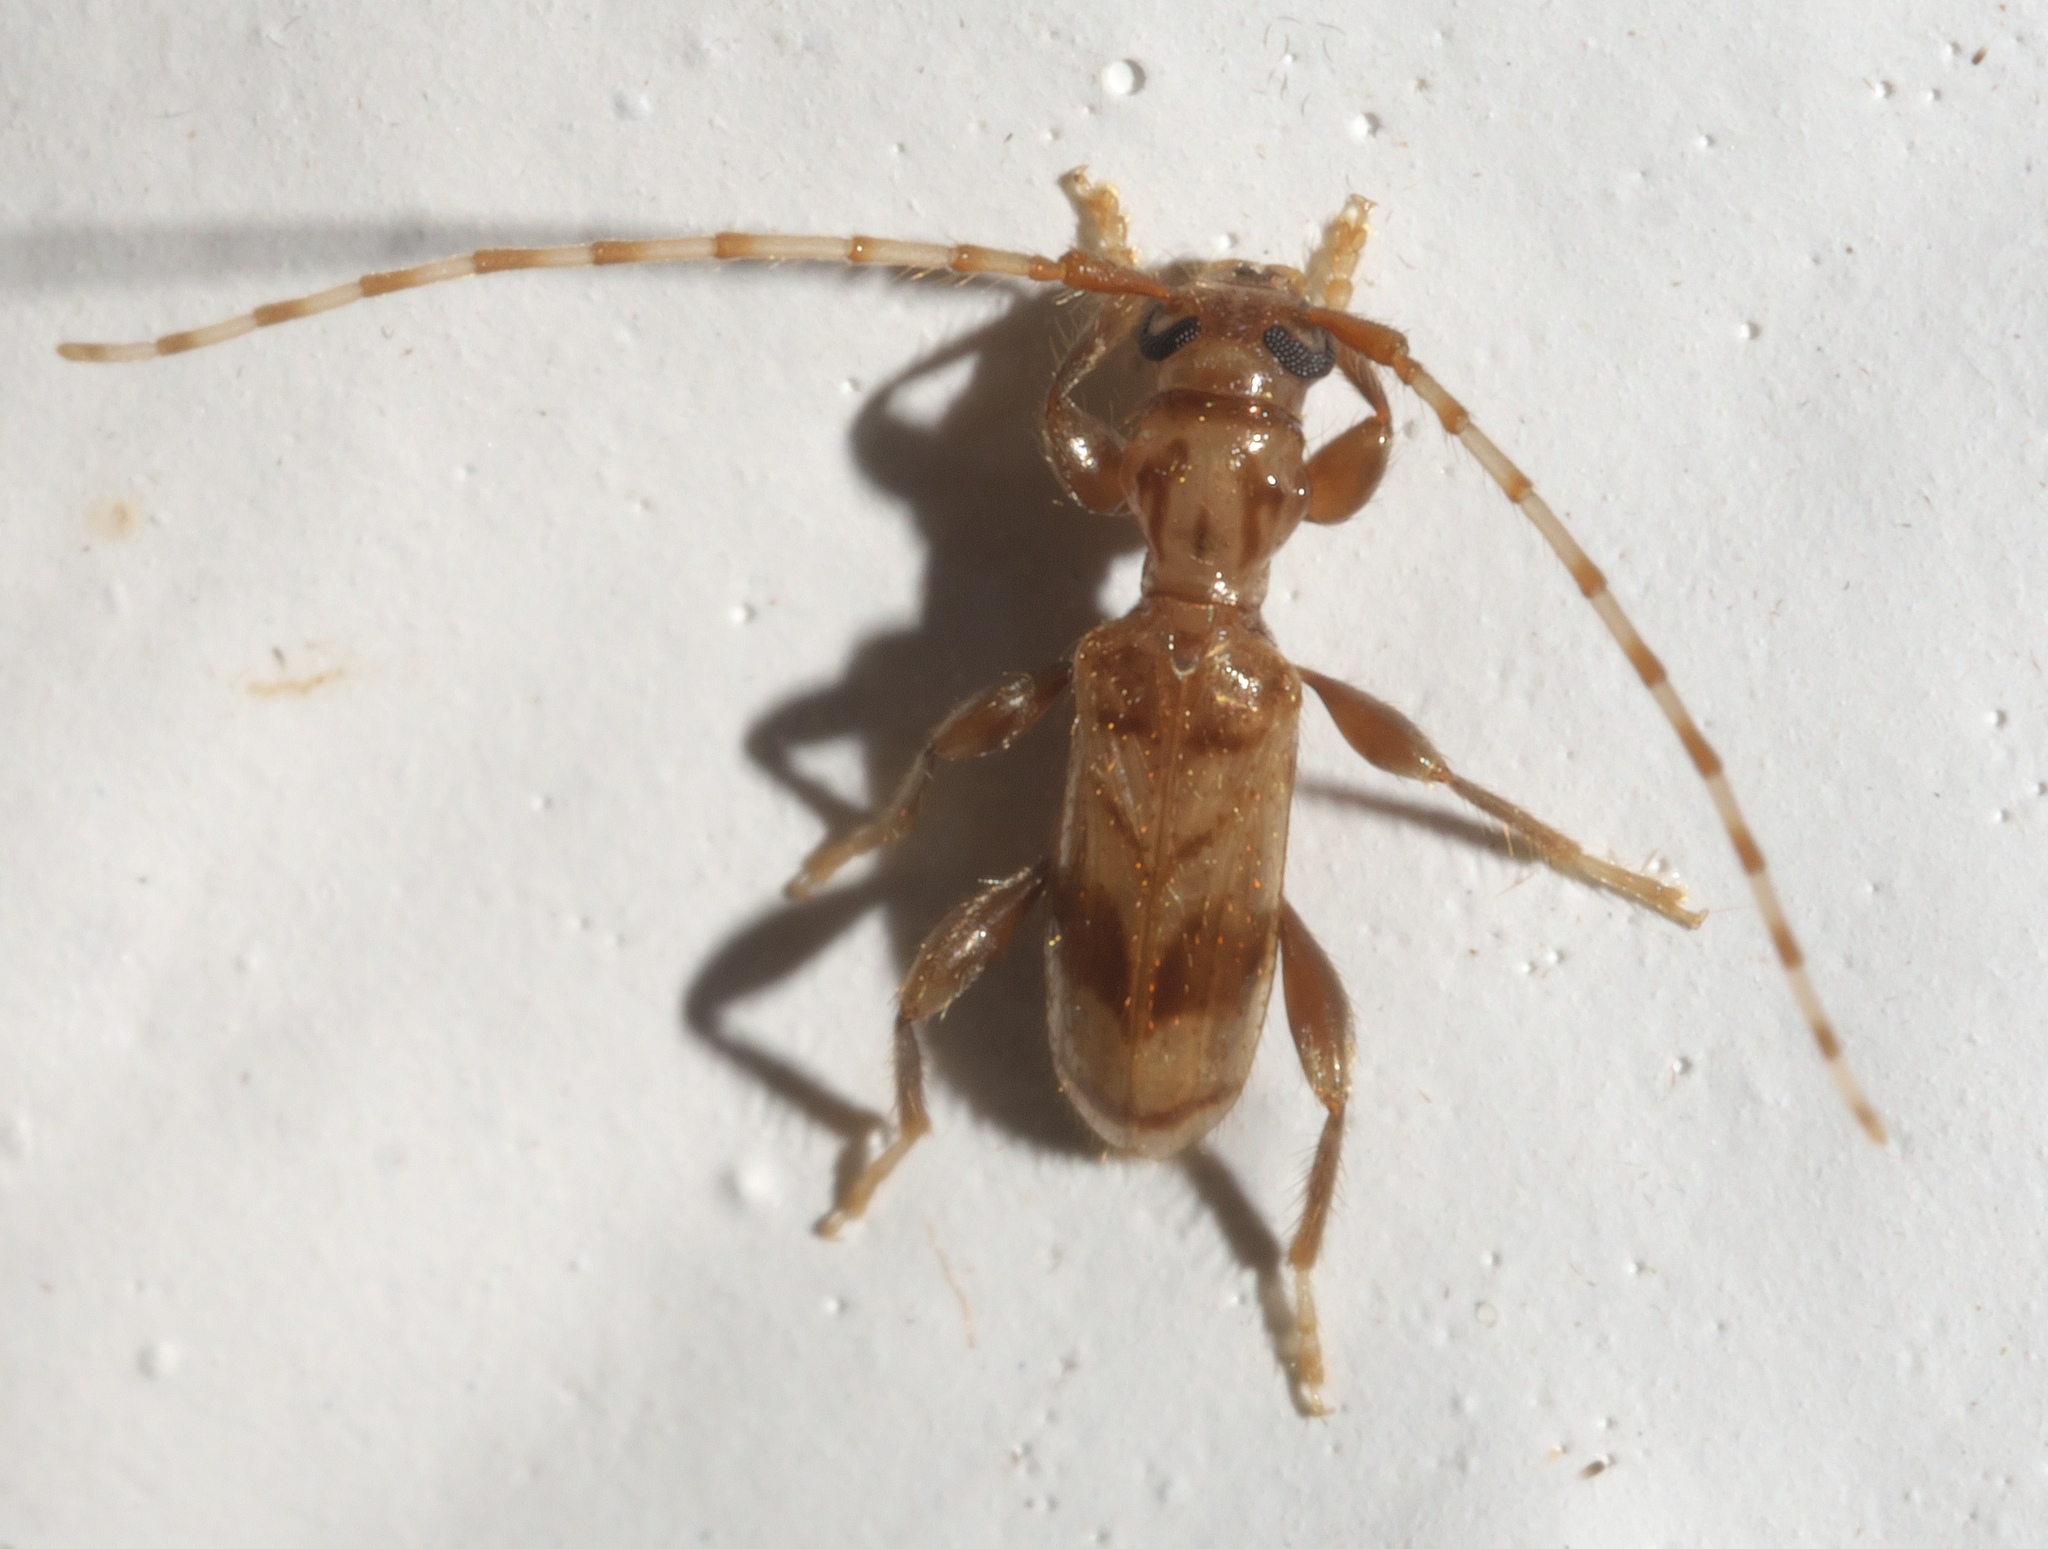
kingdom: Animalia
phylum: Arthropoda
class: Insecta
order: Coleoptera
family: Cerambycidae
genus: Obrium
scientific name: Obrium maculatum
